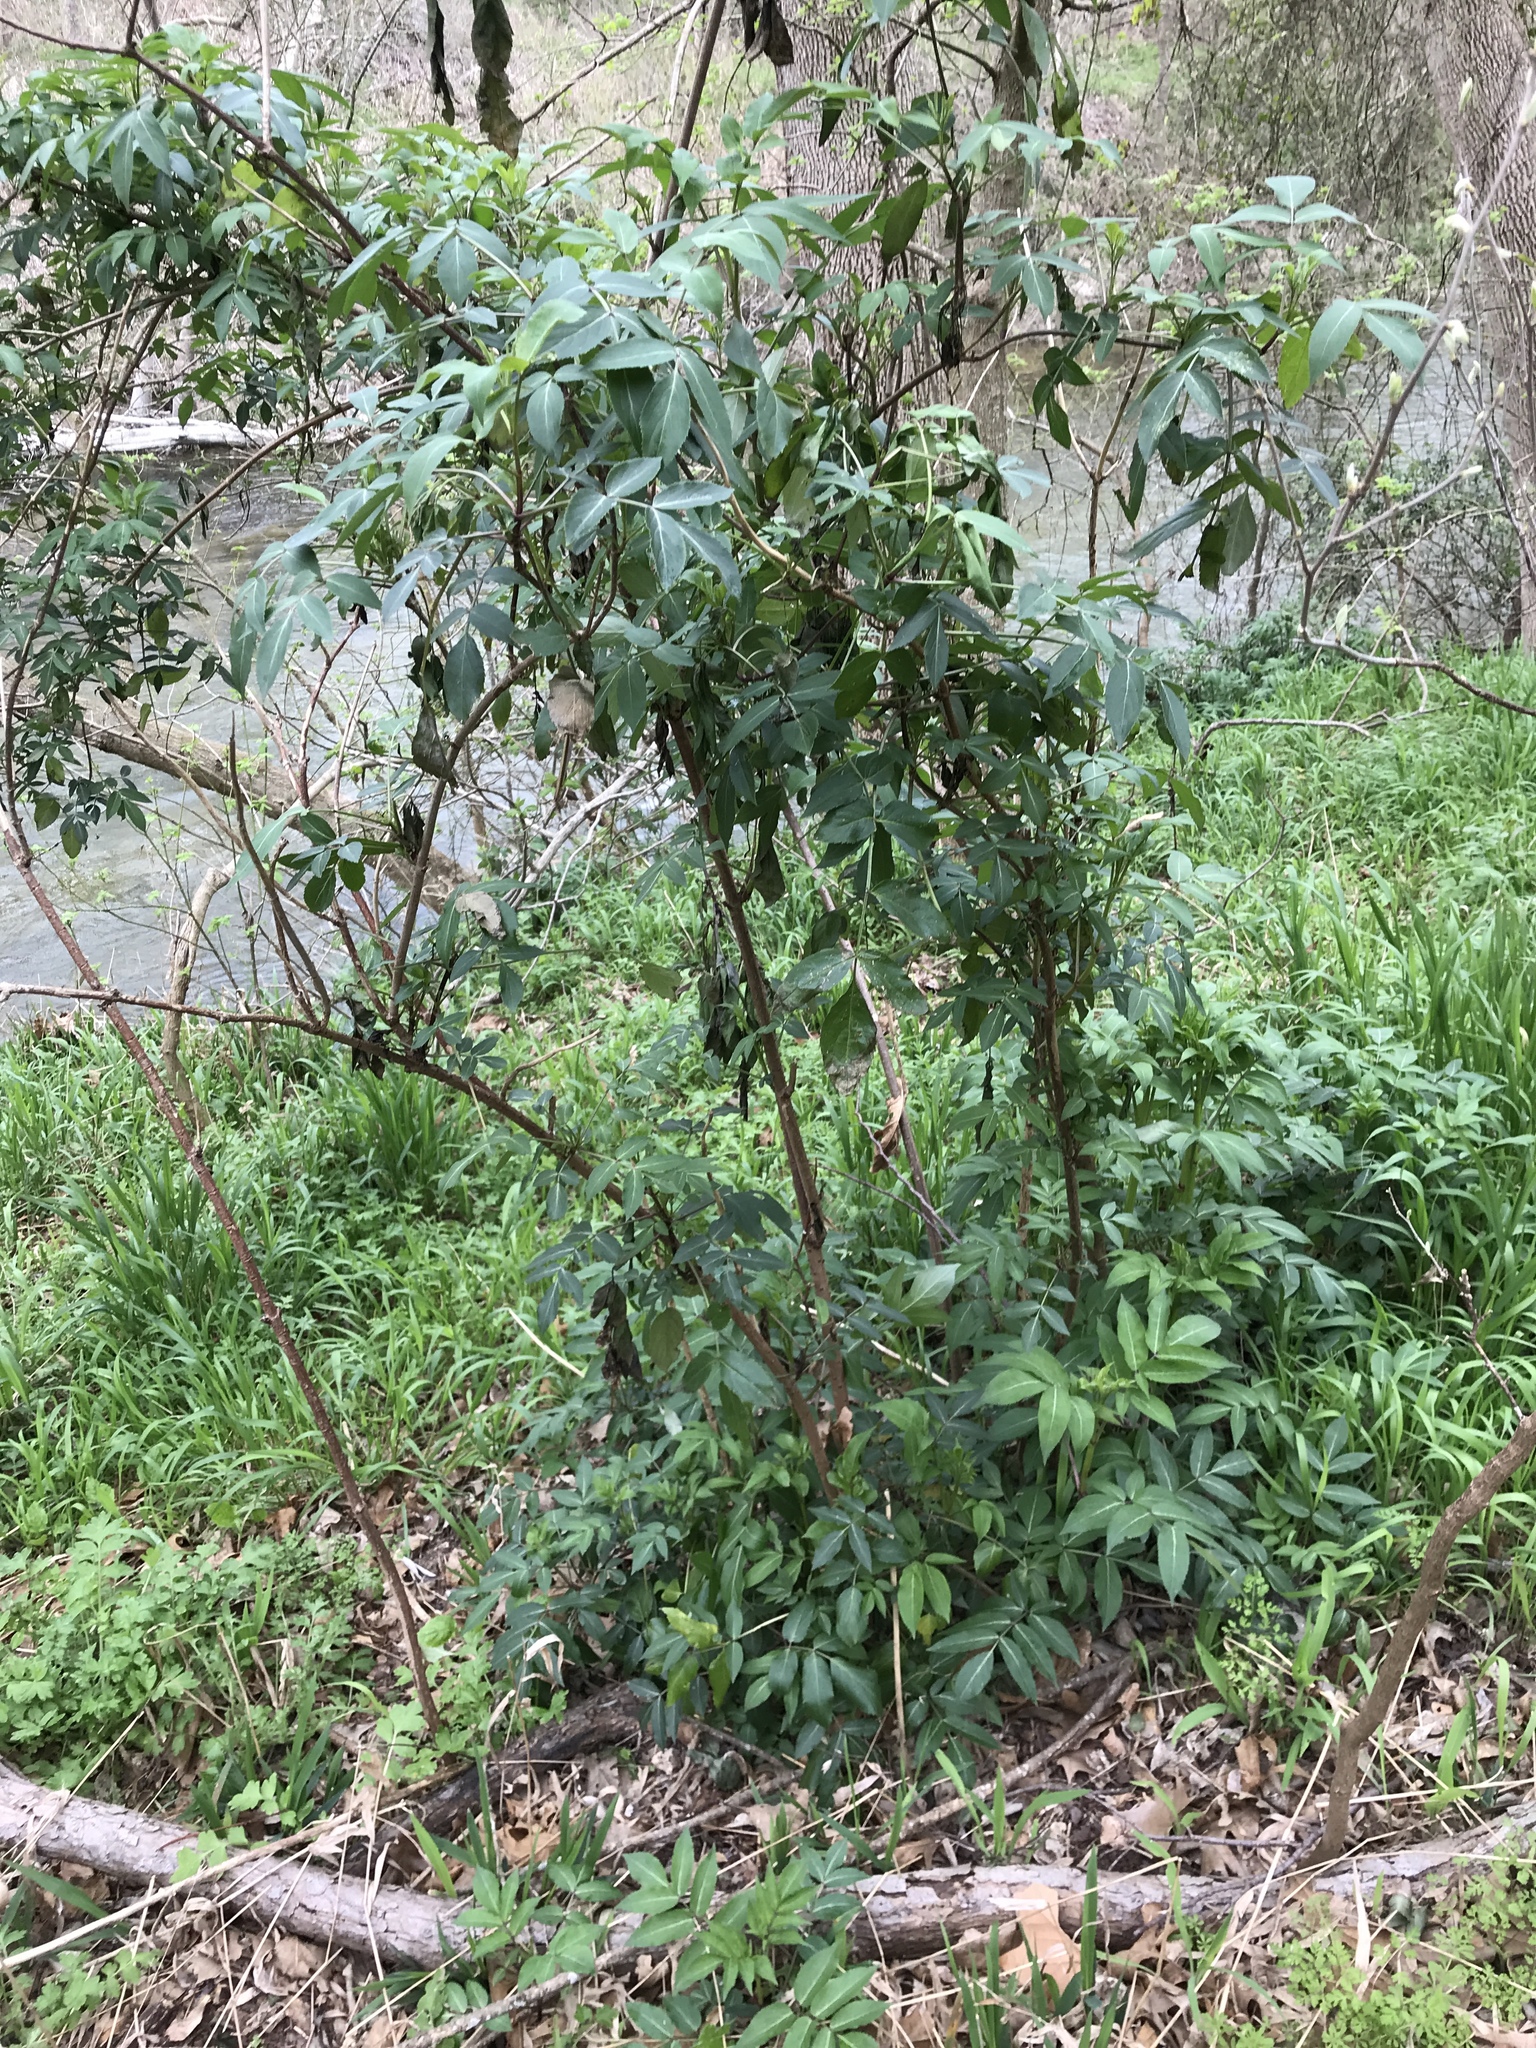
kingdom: Plantae
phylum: Tracheophyta
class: Magnoliopsida
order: Dipsacales
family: Viburnaceae
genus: Sambucus
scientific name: Sambucus canadensis
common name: American elder
